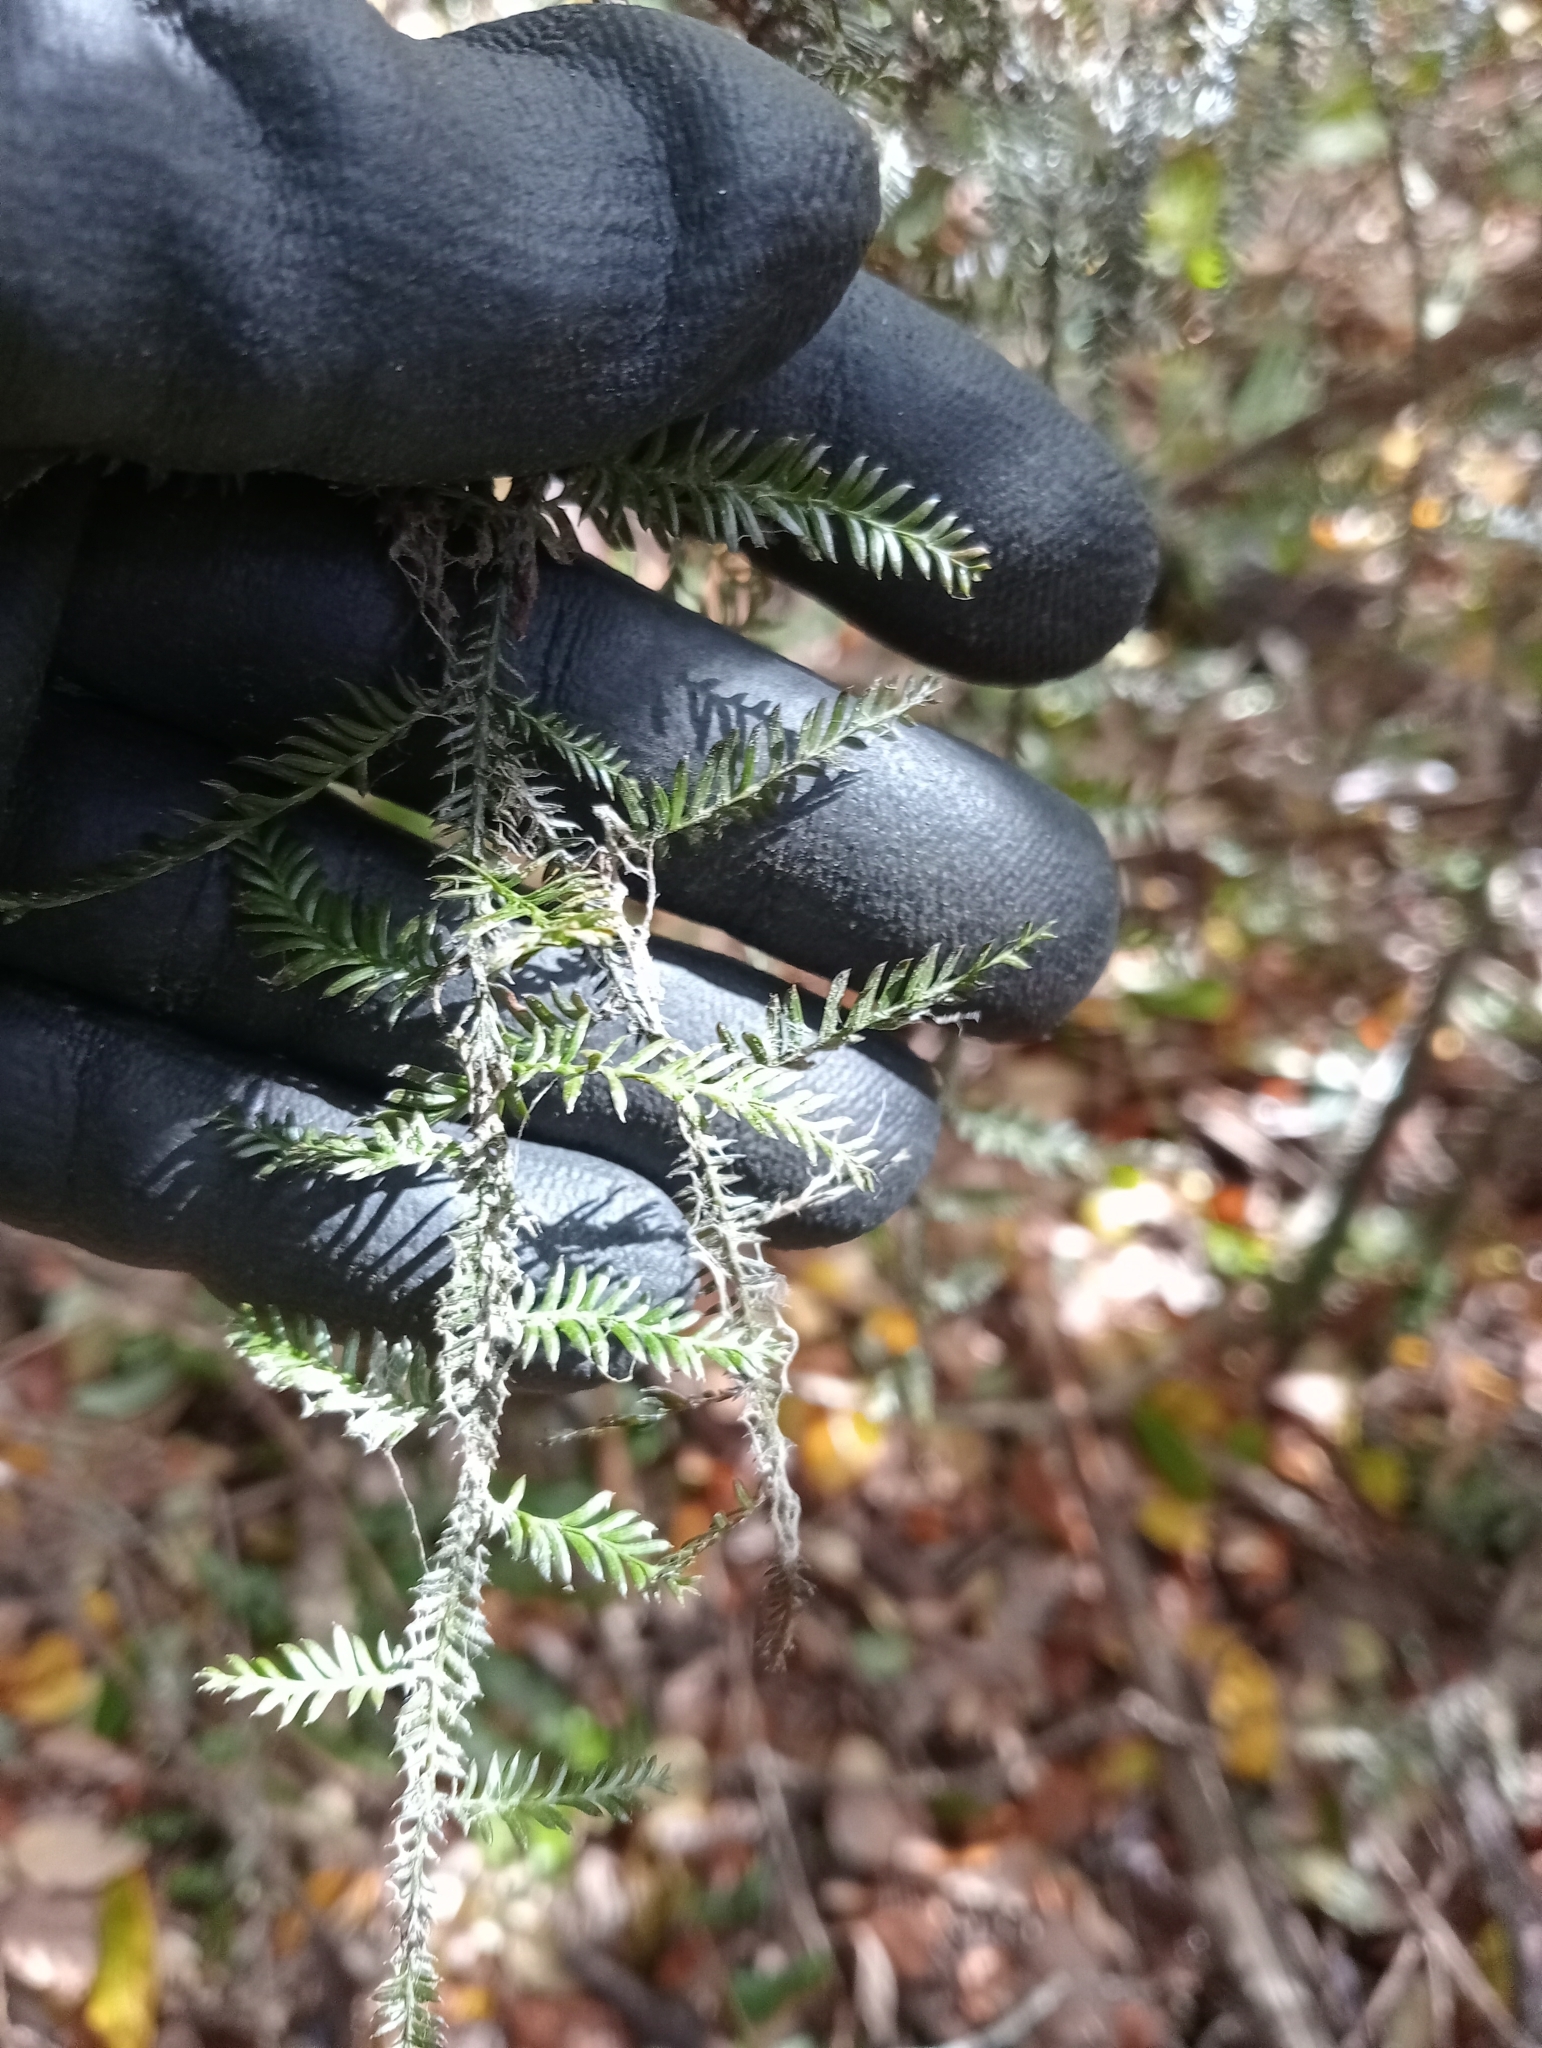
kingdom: Plantae
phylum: Tracheophyta
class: Pinopsida
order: Pinales
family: Podocarpaceae
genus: Dacrycarpus
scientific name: Dacrycarpus dacrydioides
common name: White pine
